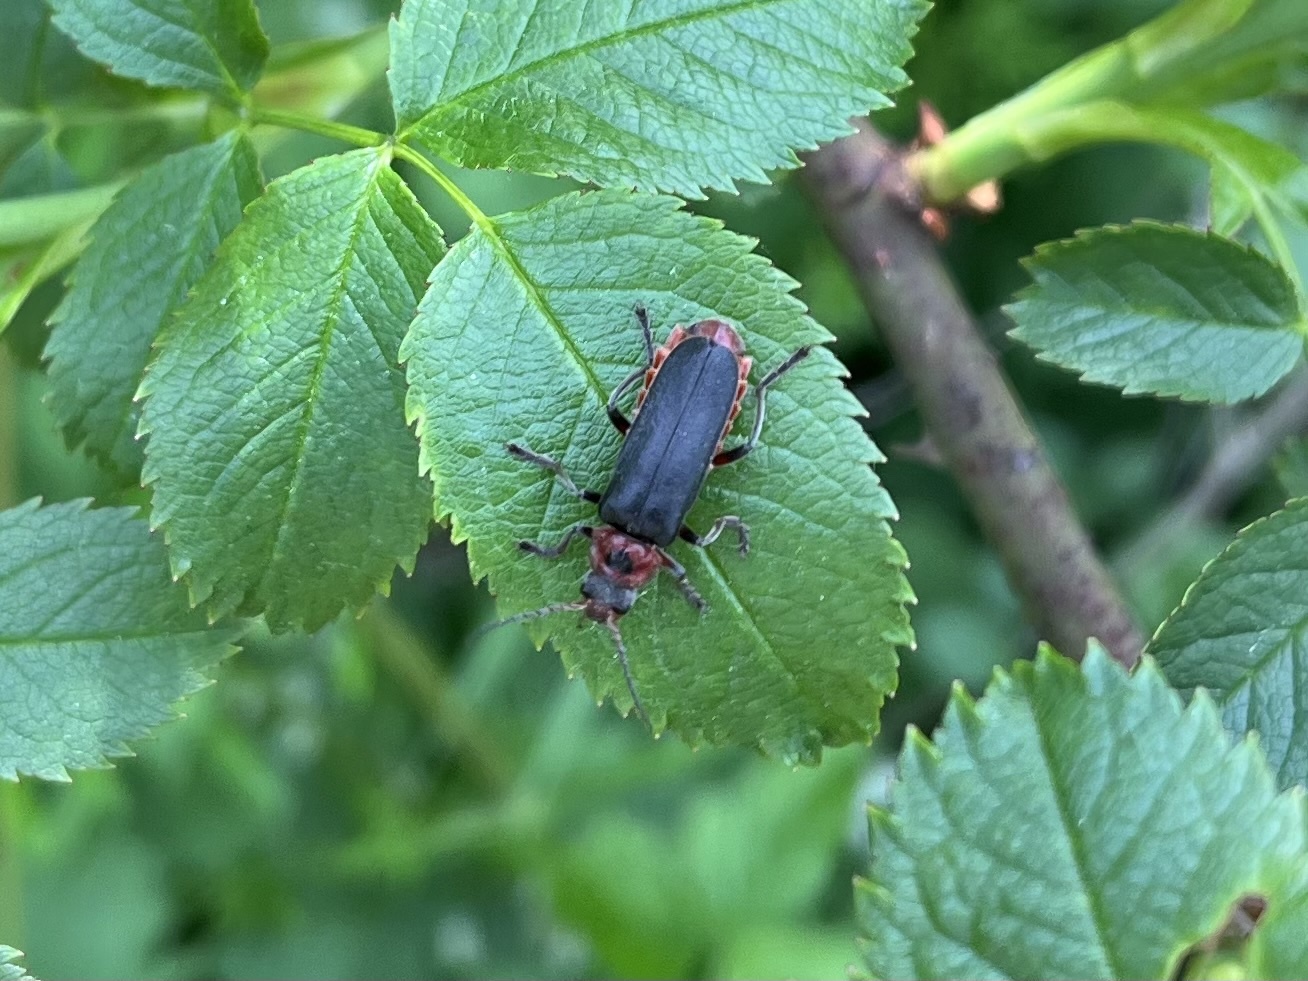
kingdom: Animalia
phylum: Arthropoda
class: Insecta
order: Coleoptera
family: Cantharidae
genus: Cantharis
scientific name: Cantharis rustica
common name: Soldier beetle
